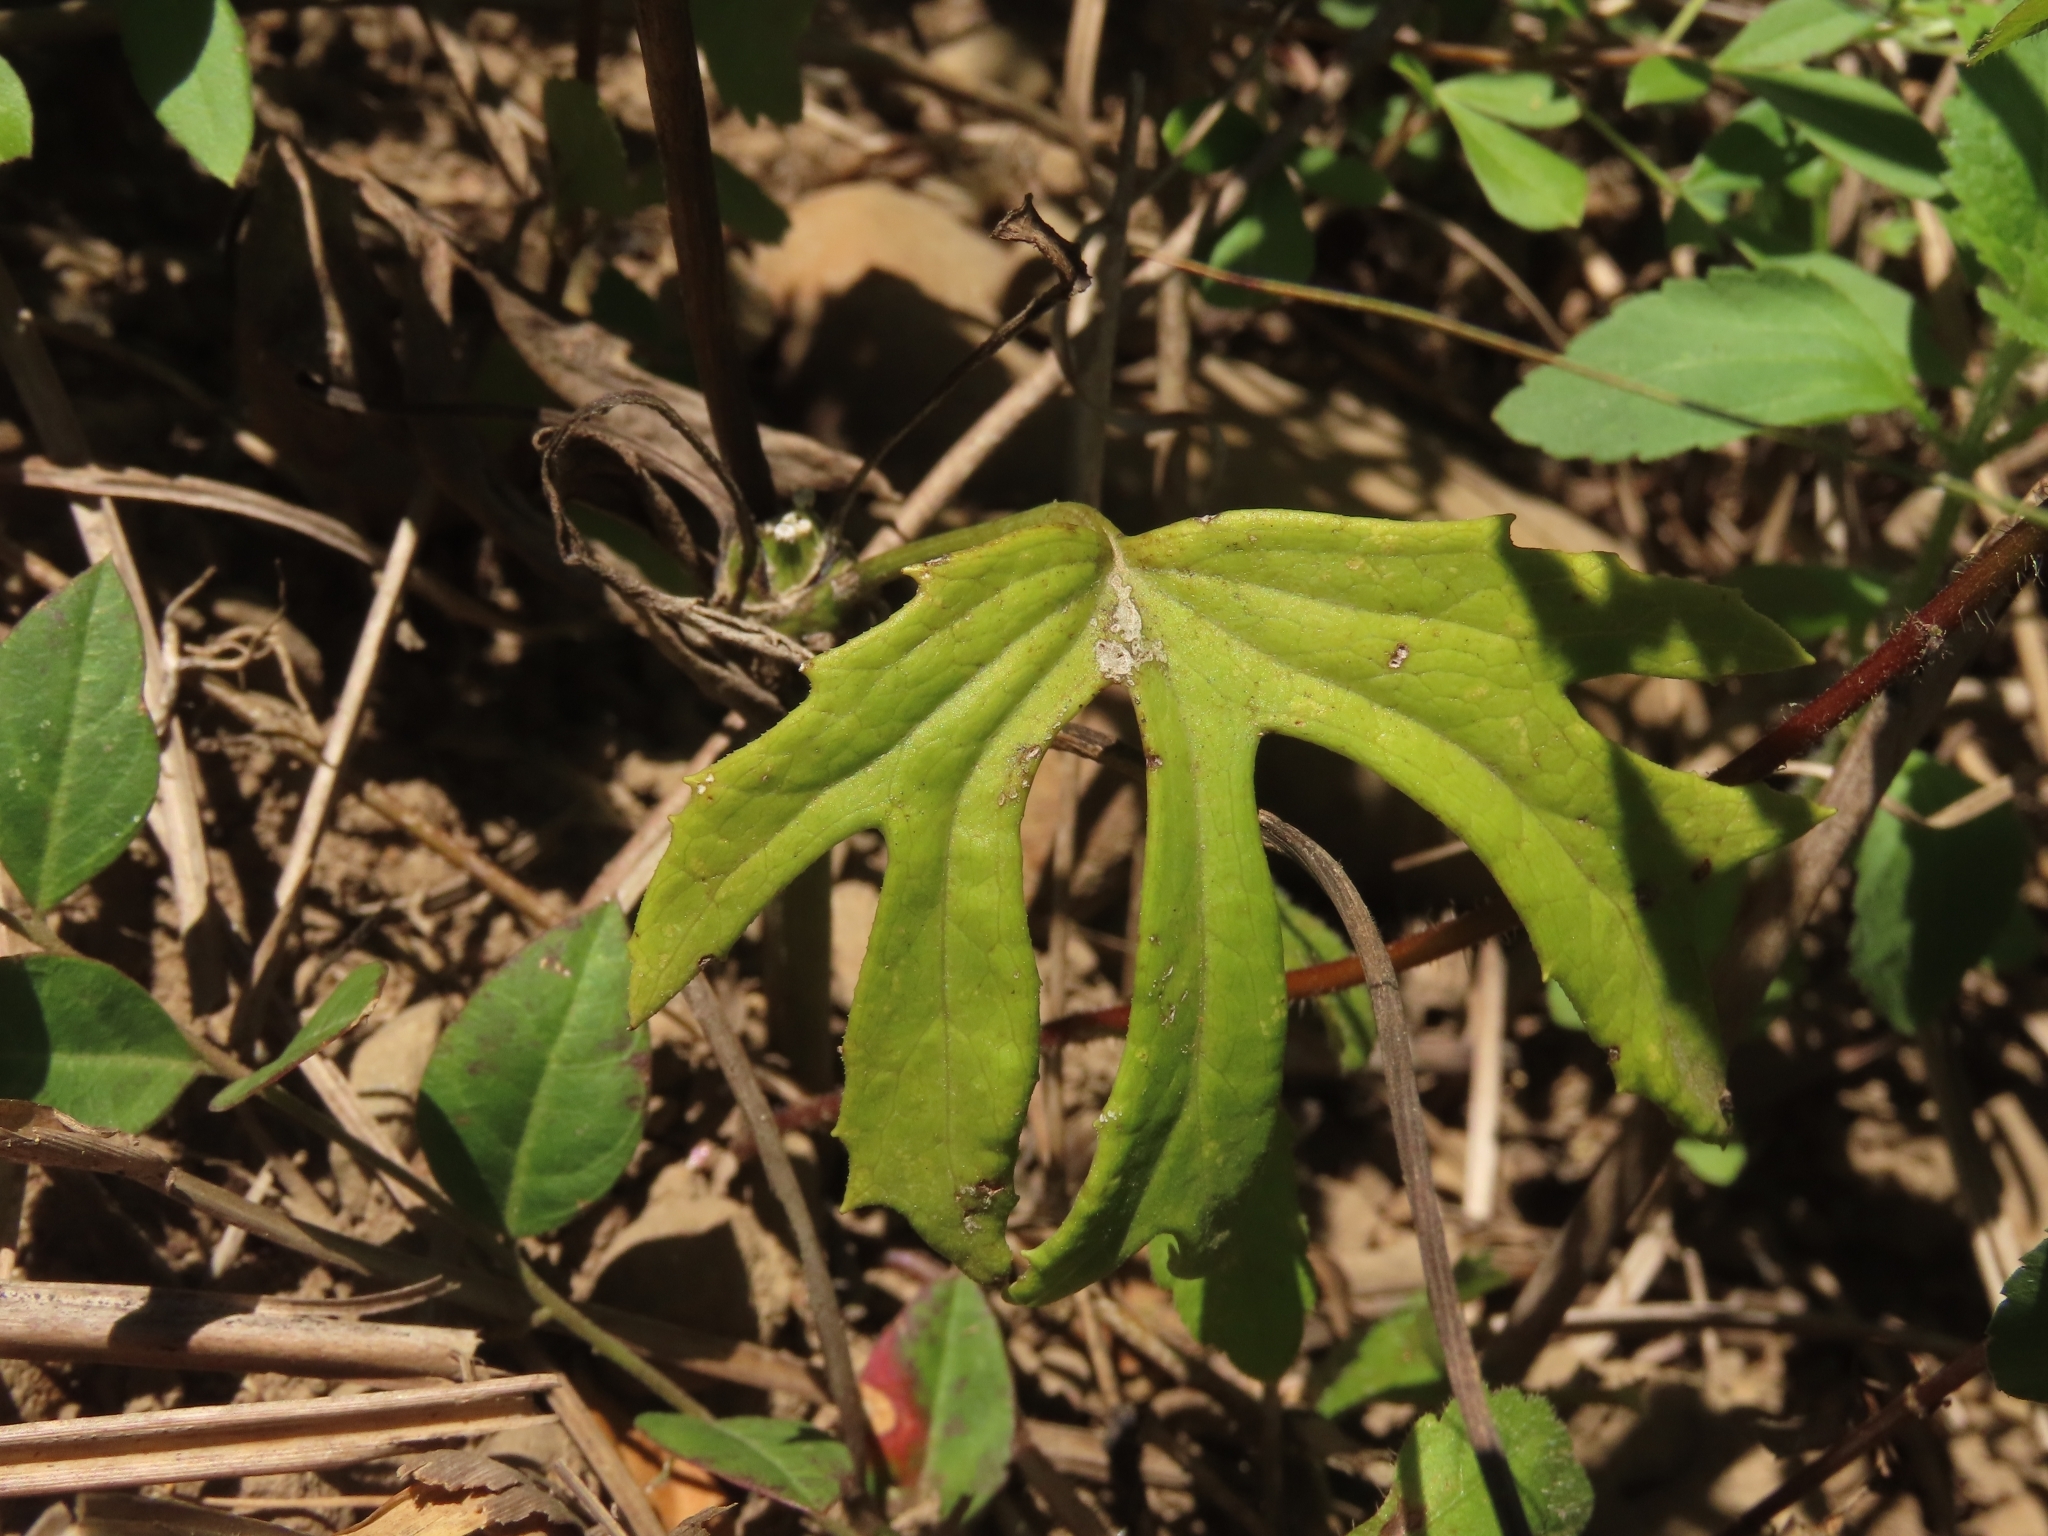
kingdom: Plantae
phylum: Tracheophyta
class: Magnoliopsida
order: Asterales
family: Asteraceae
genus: Syneilesis
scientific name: Syneilesis hayatae
